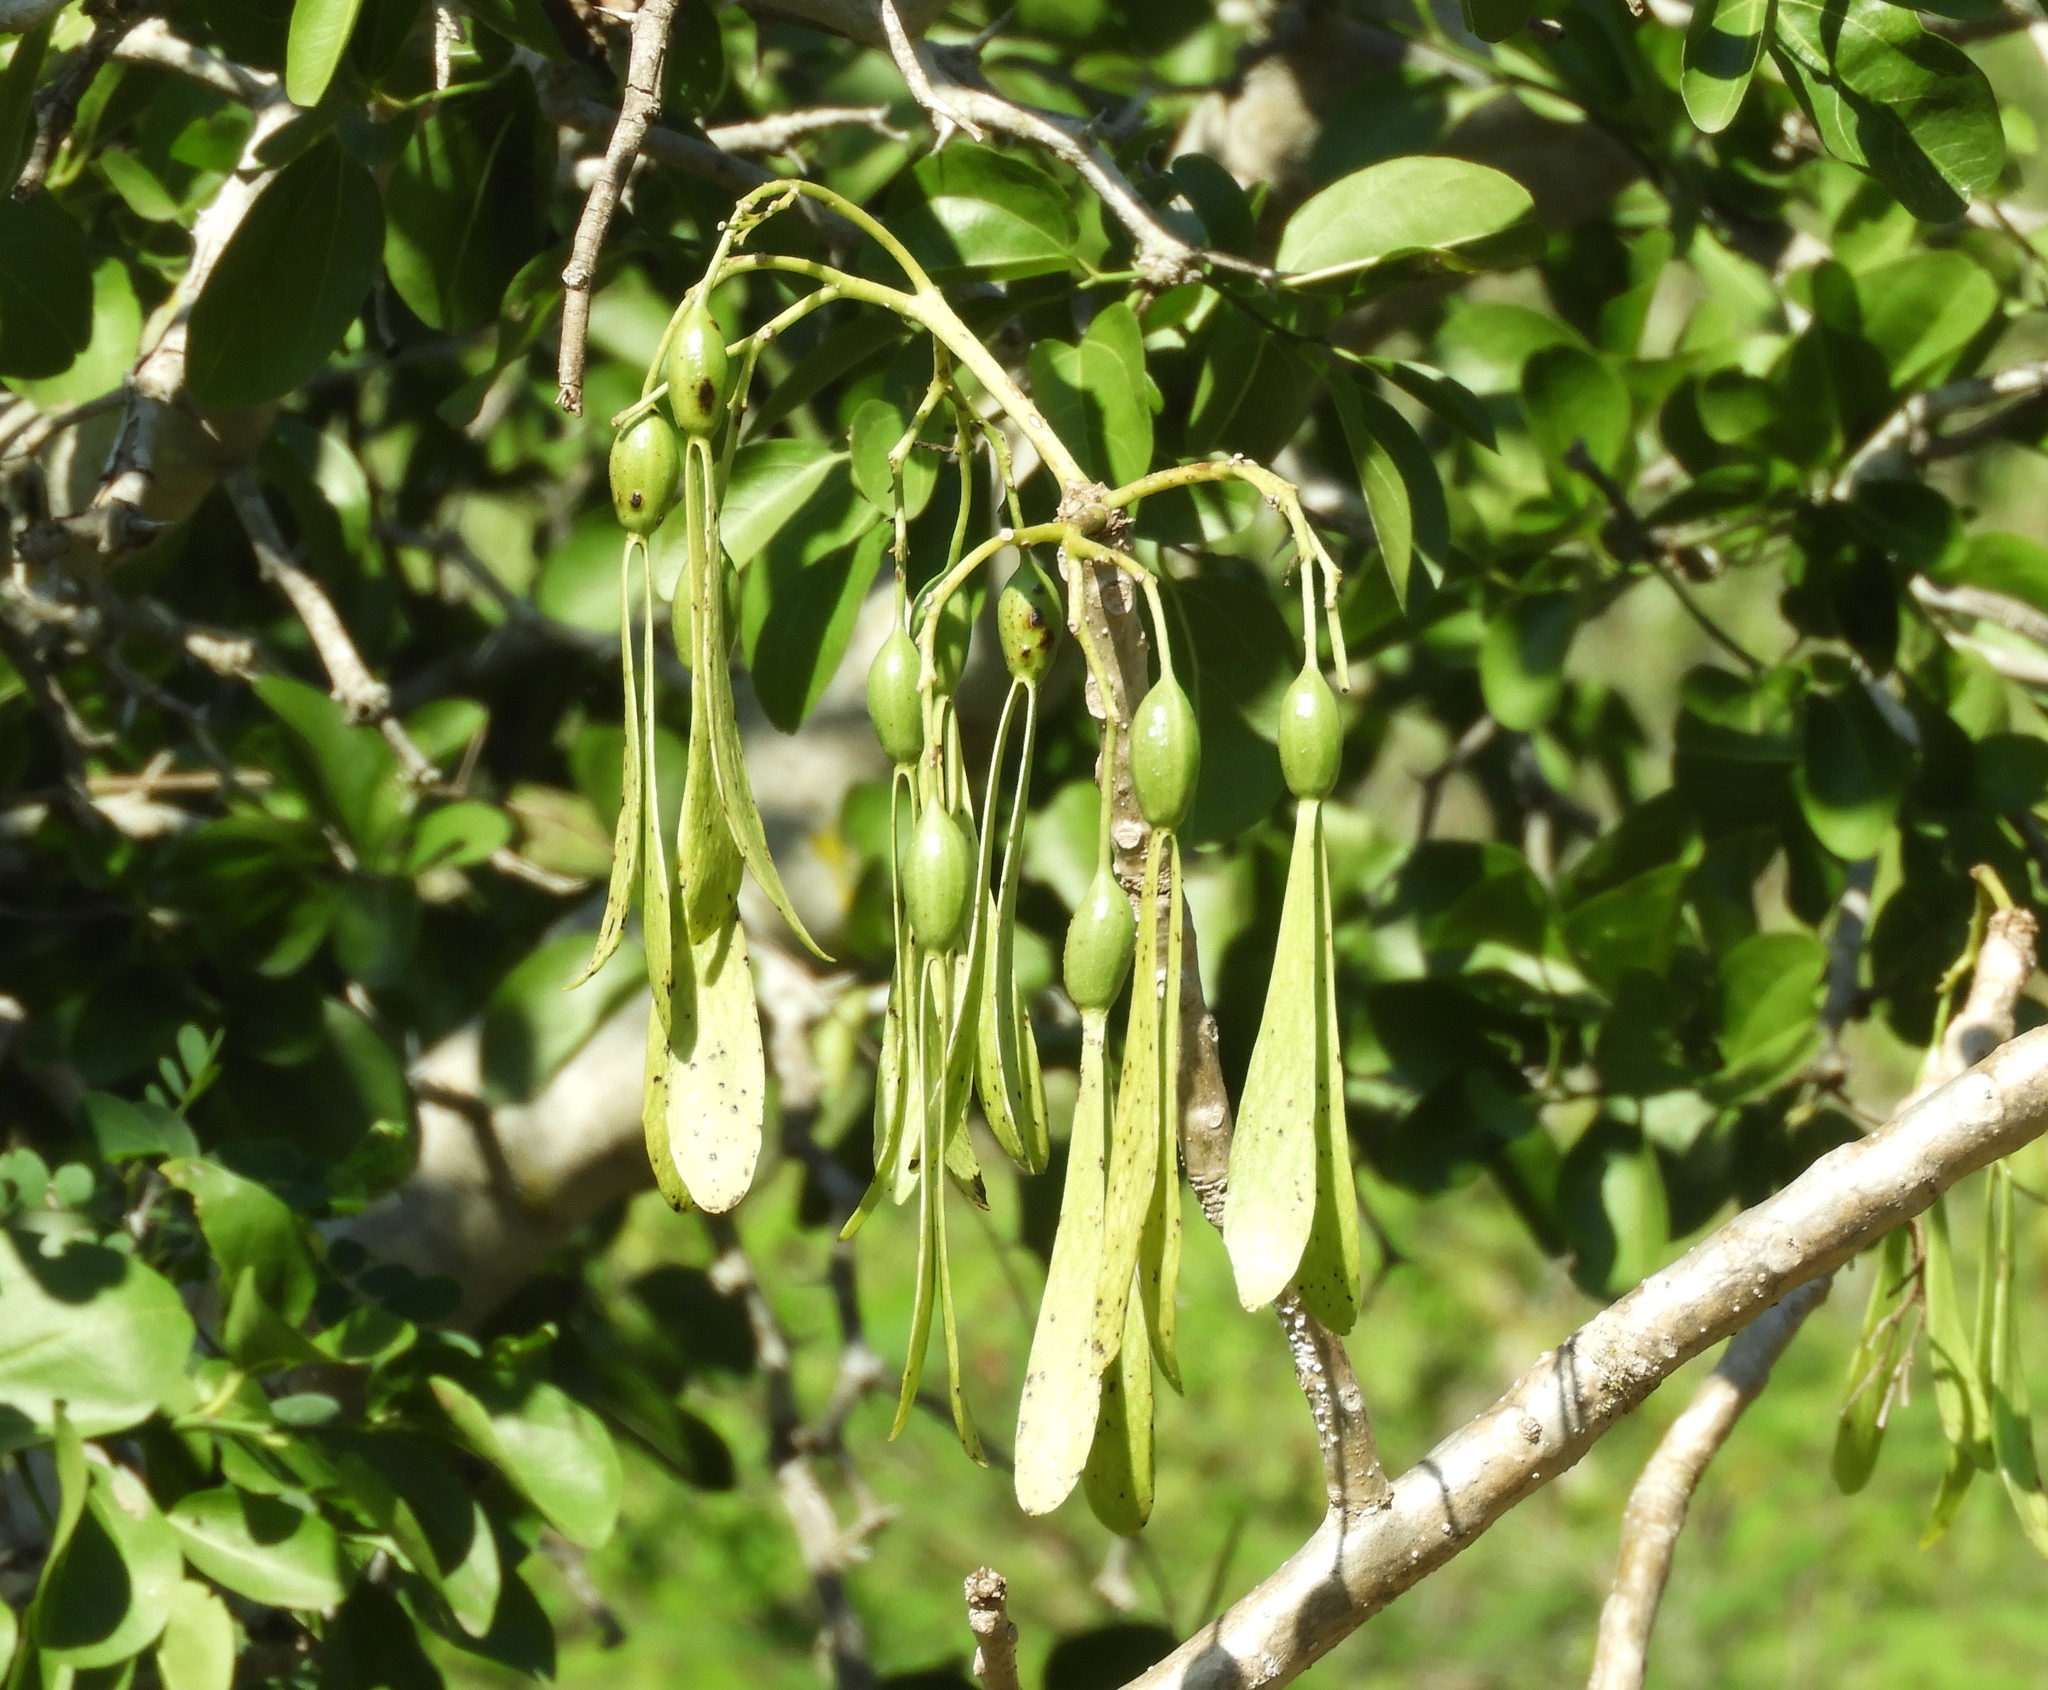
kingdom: Plantae
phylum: Tracheophyta
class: Magnoliopsida
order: Laurales
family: Hernandiaceae
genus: Gyrocarpus
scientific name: Gyrocarpus jatrophifolius
